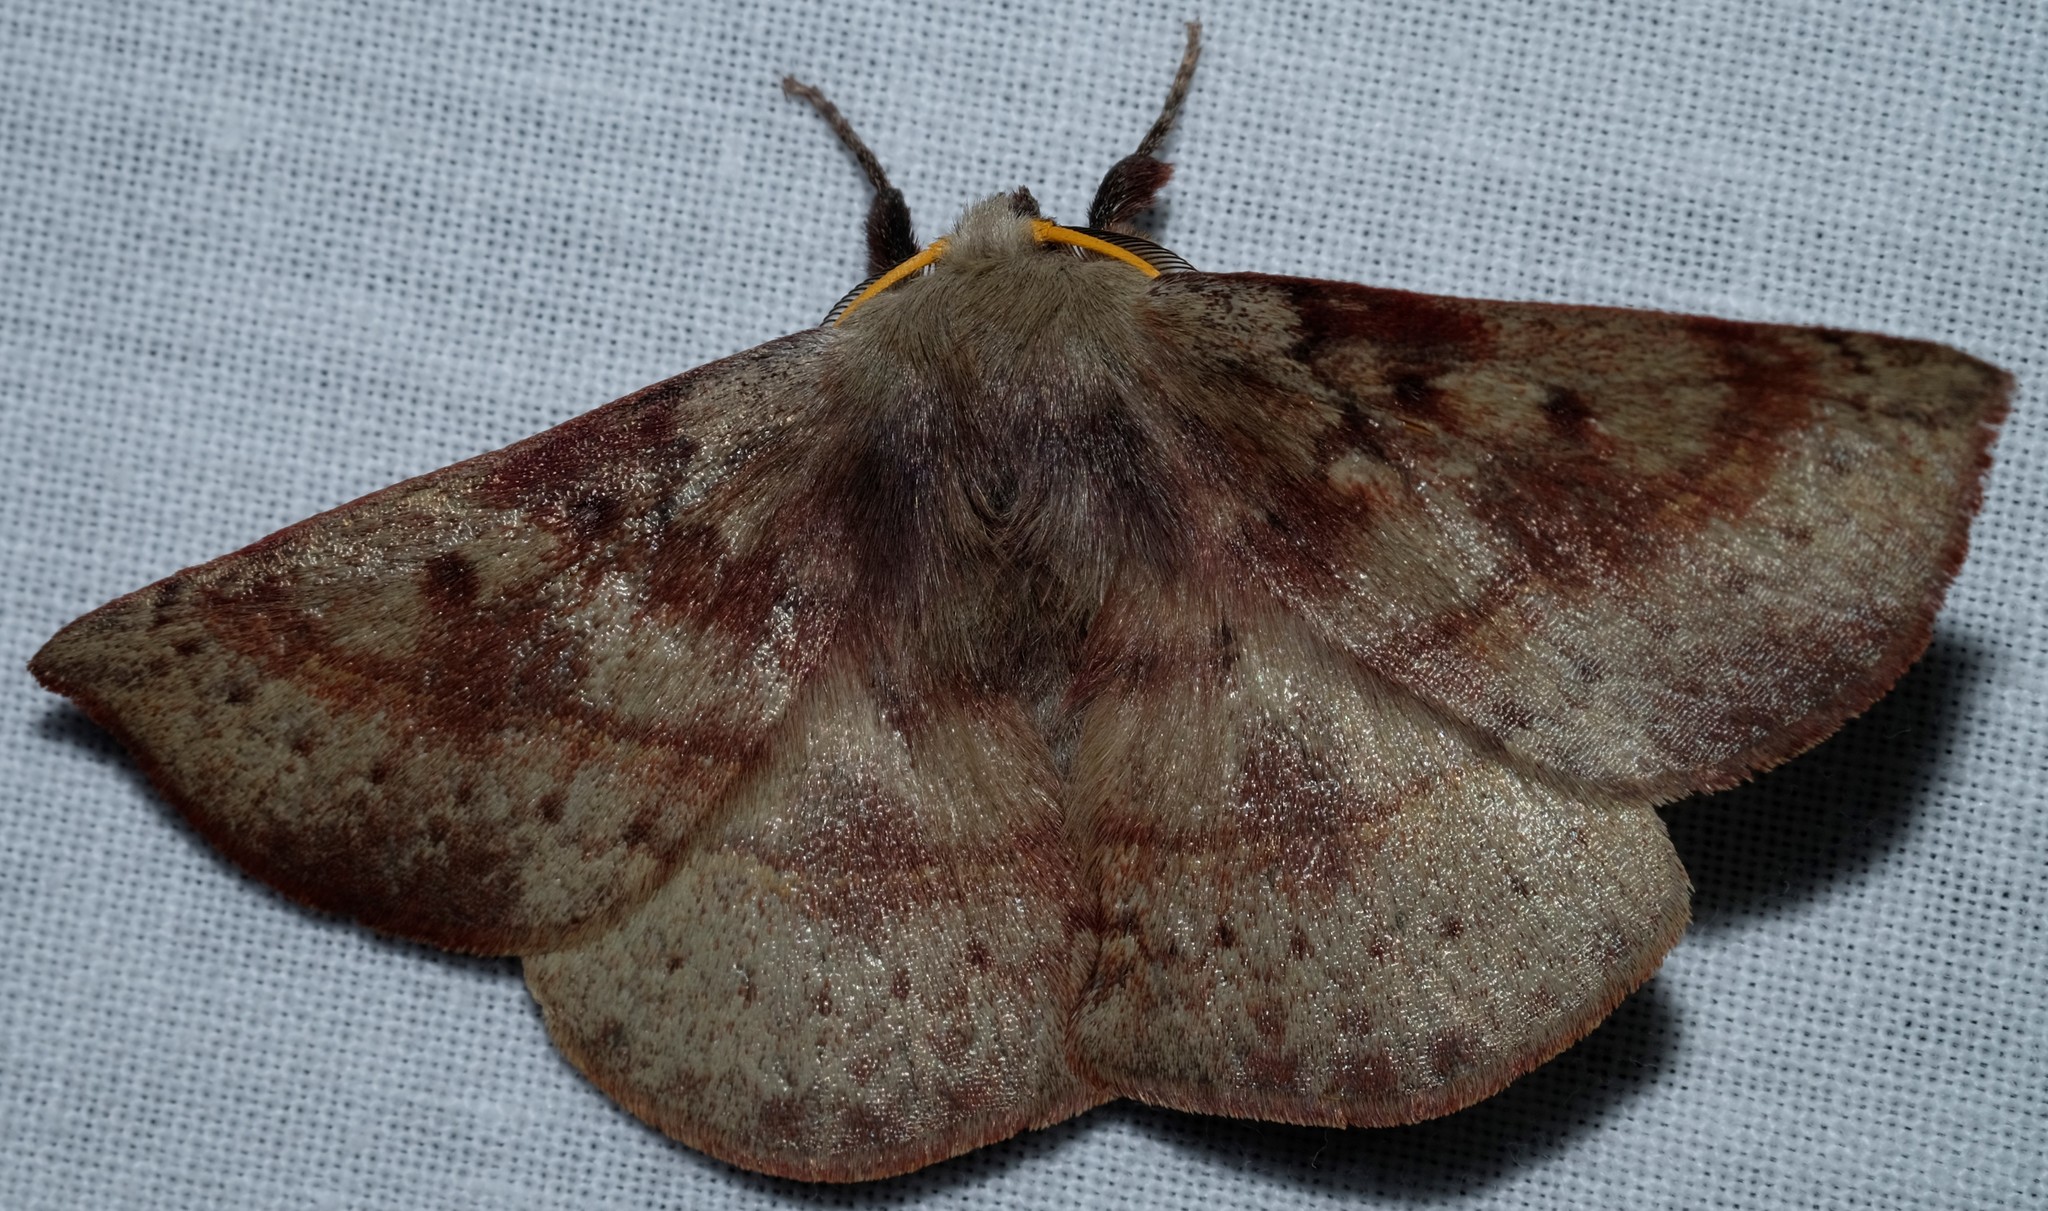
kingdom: Animalia
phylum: Arthropoda
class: Insecta
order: Lepidoptera
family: Anthelidae
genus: Anthela
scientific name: Anthela acuta
